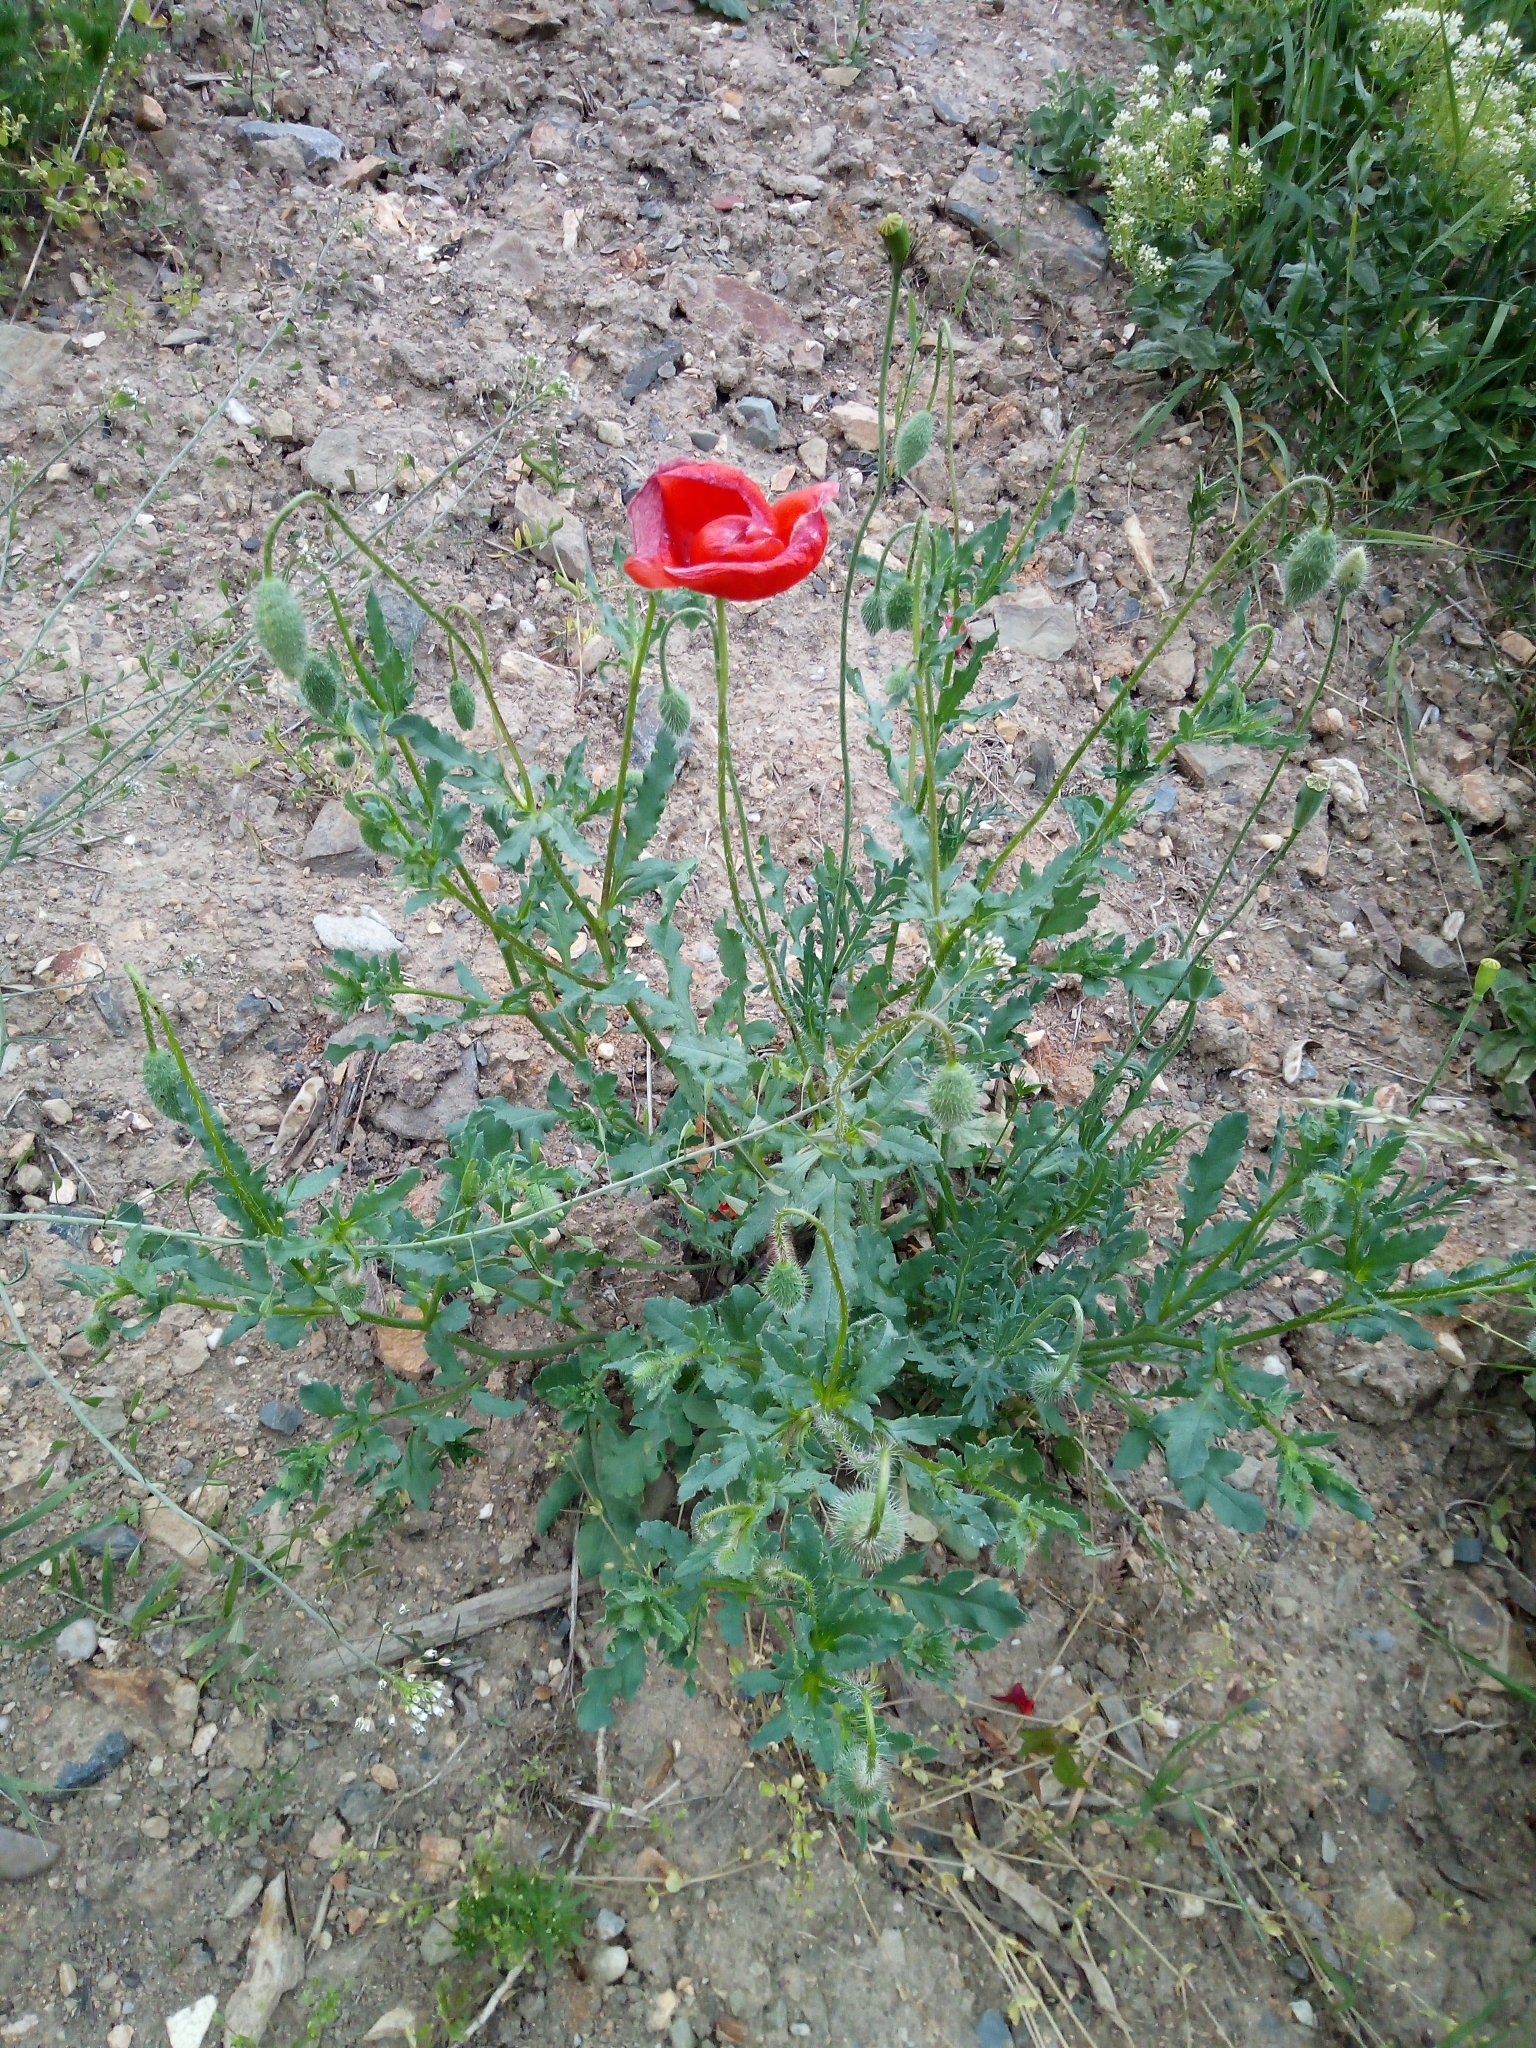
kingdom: Plantae
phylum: Tracheophyta
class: Magnoliopsida
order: Ranunculales
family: Papaveraceae
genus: Papaver
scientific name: Papaver rhoeas
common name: Corn poppy
